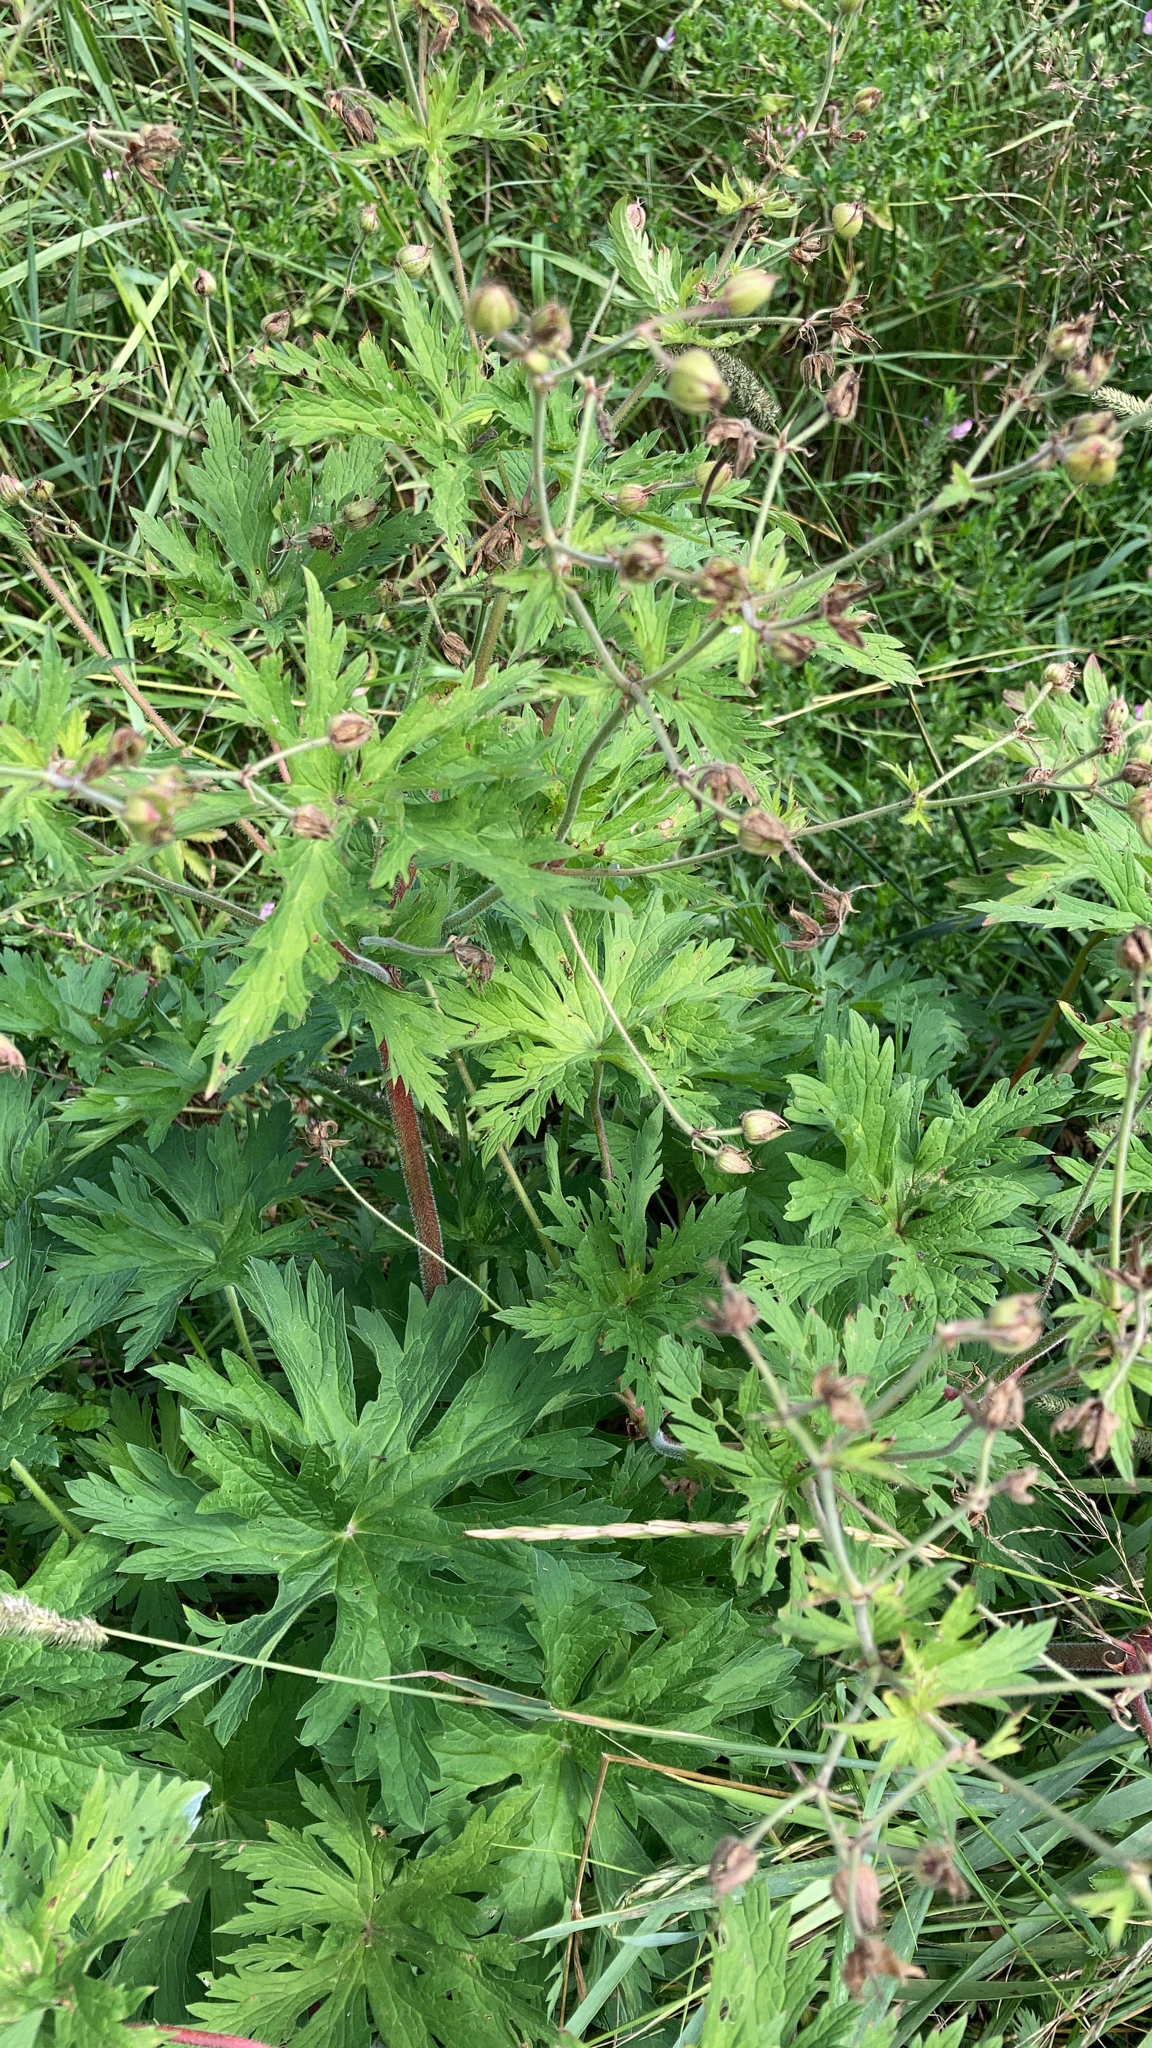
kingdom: Plantae
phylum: Tracheophyta
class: Magnoliopsida
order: Geraniales
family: Geraniaceae
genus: Geranium
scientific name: Geranium pratense
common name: Meadow crane's-bill
